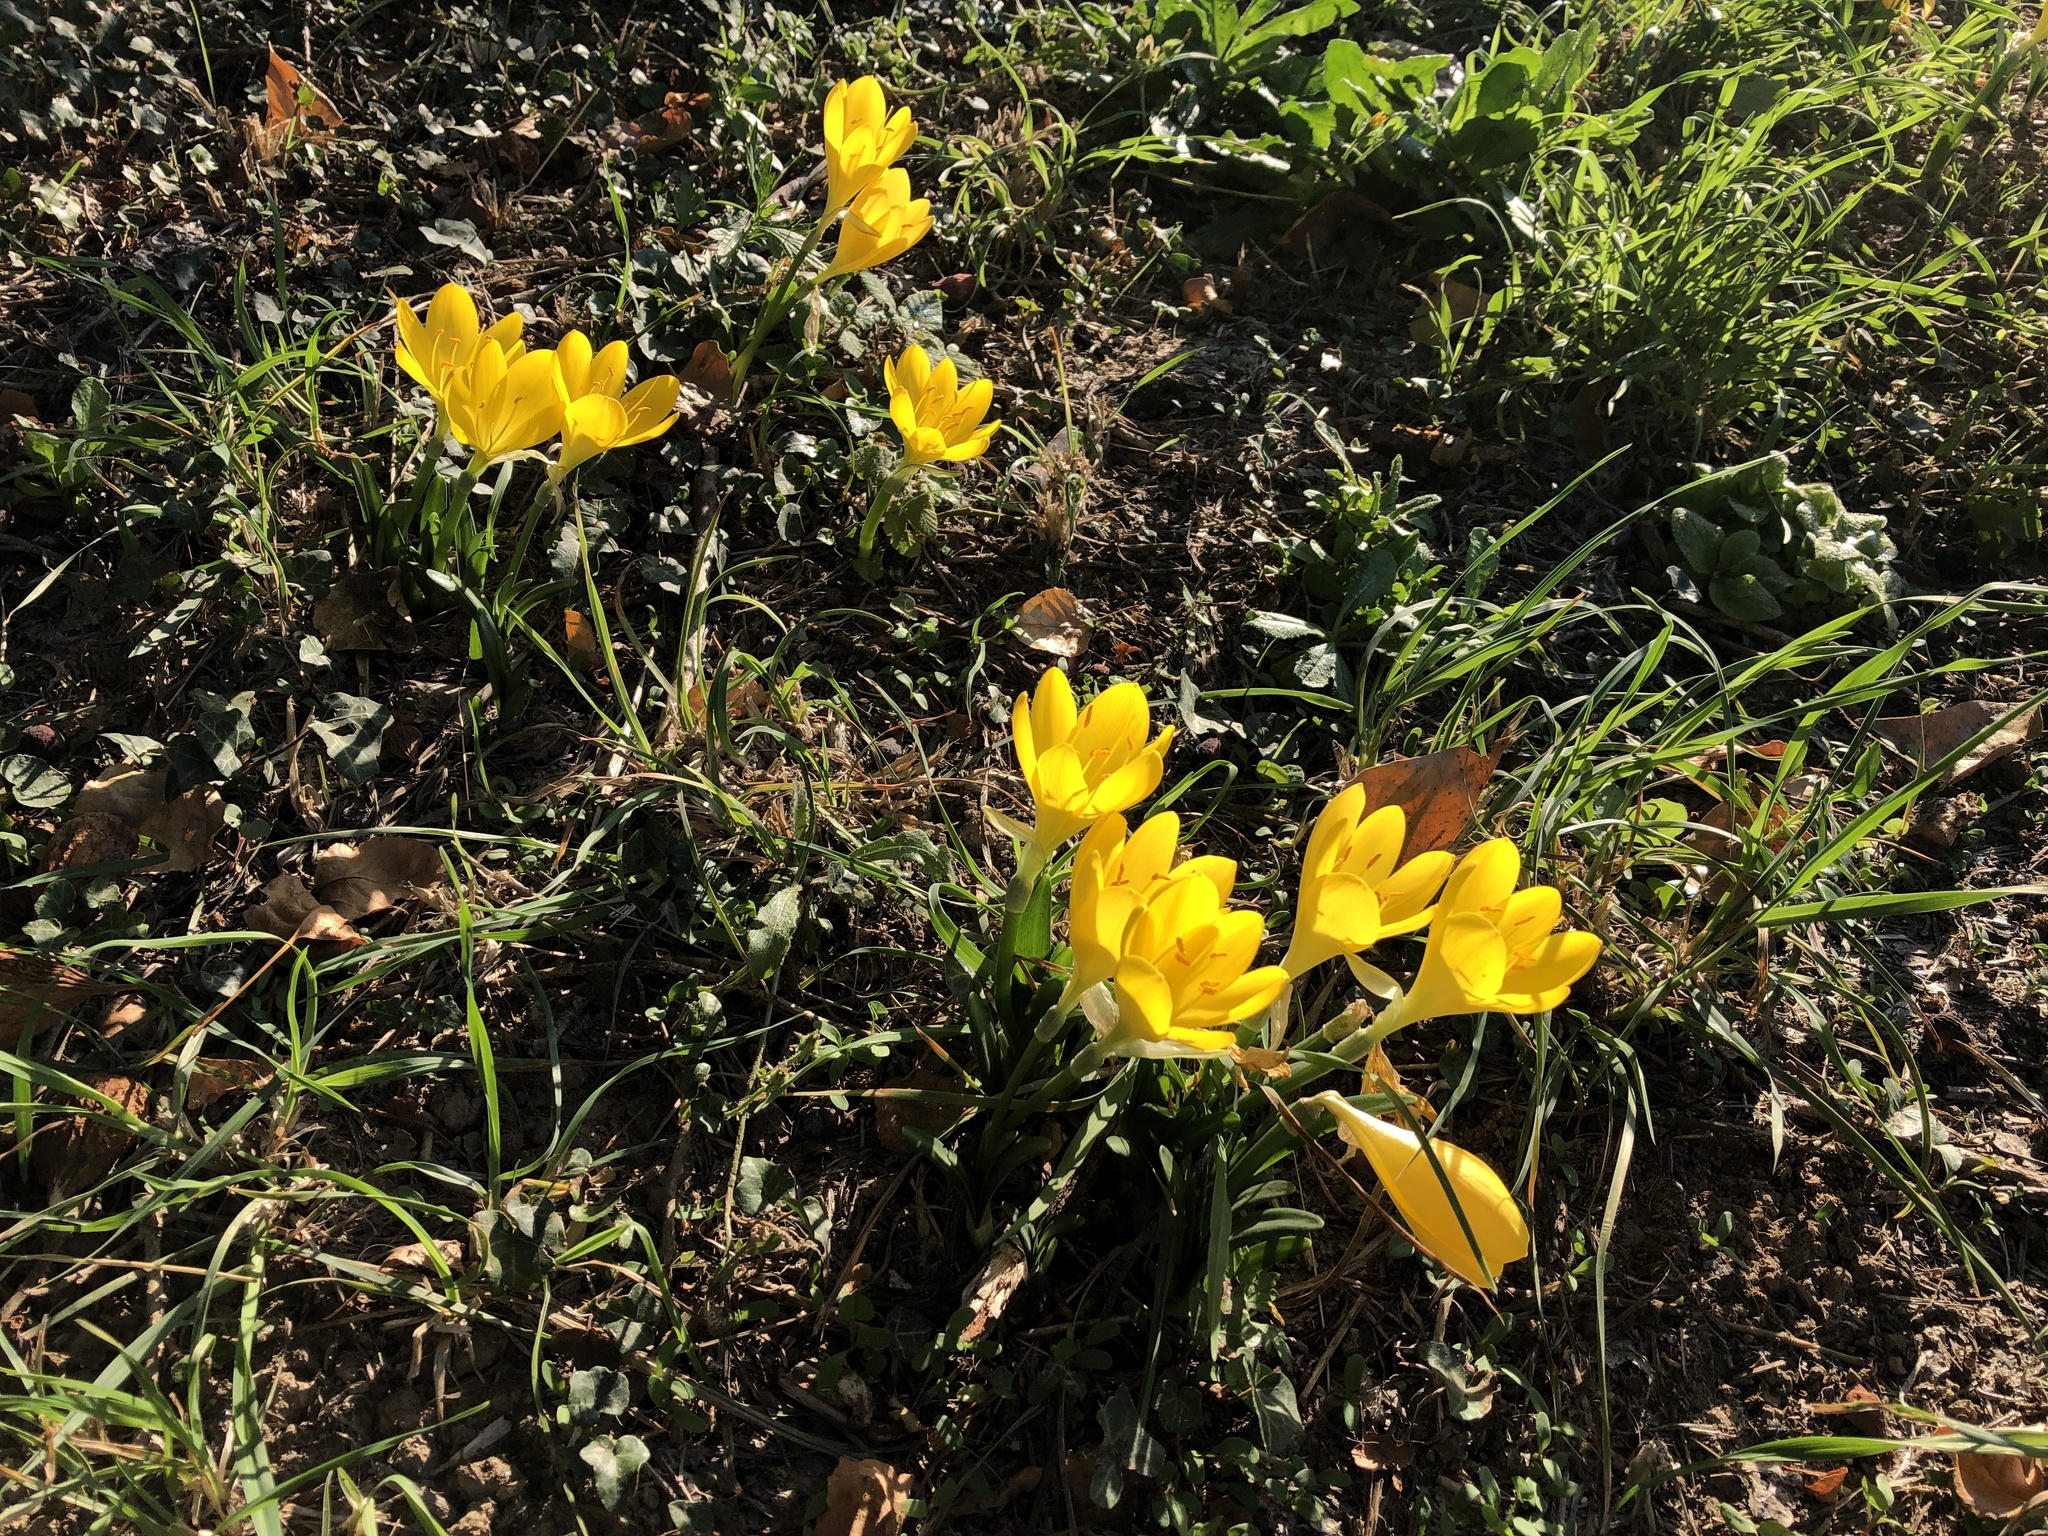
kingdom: Plantae
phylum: Tracheophyta
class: Liliopsida
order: Asparagales
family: Amaryllidaceae
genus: Sternbergia
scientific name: Sternbergia lutea
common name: Winter daffodil
